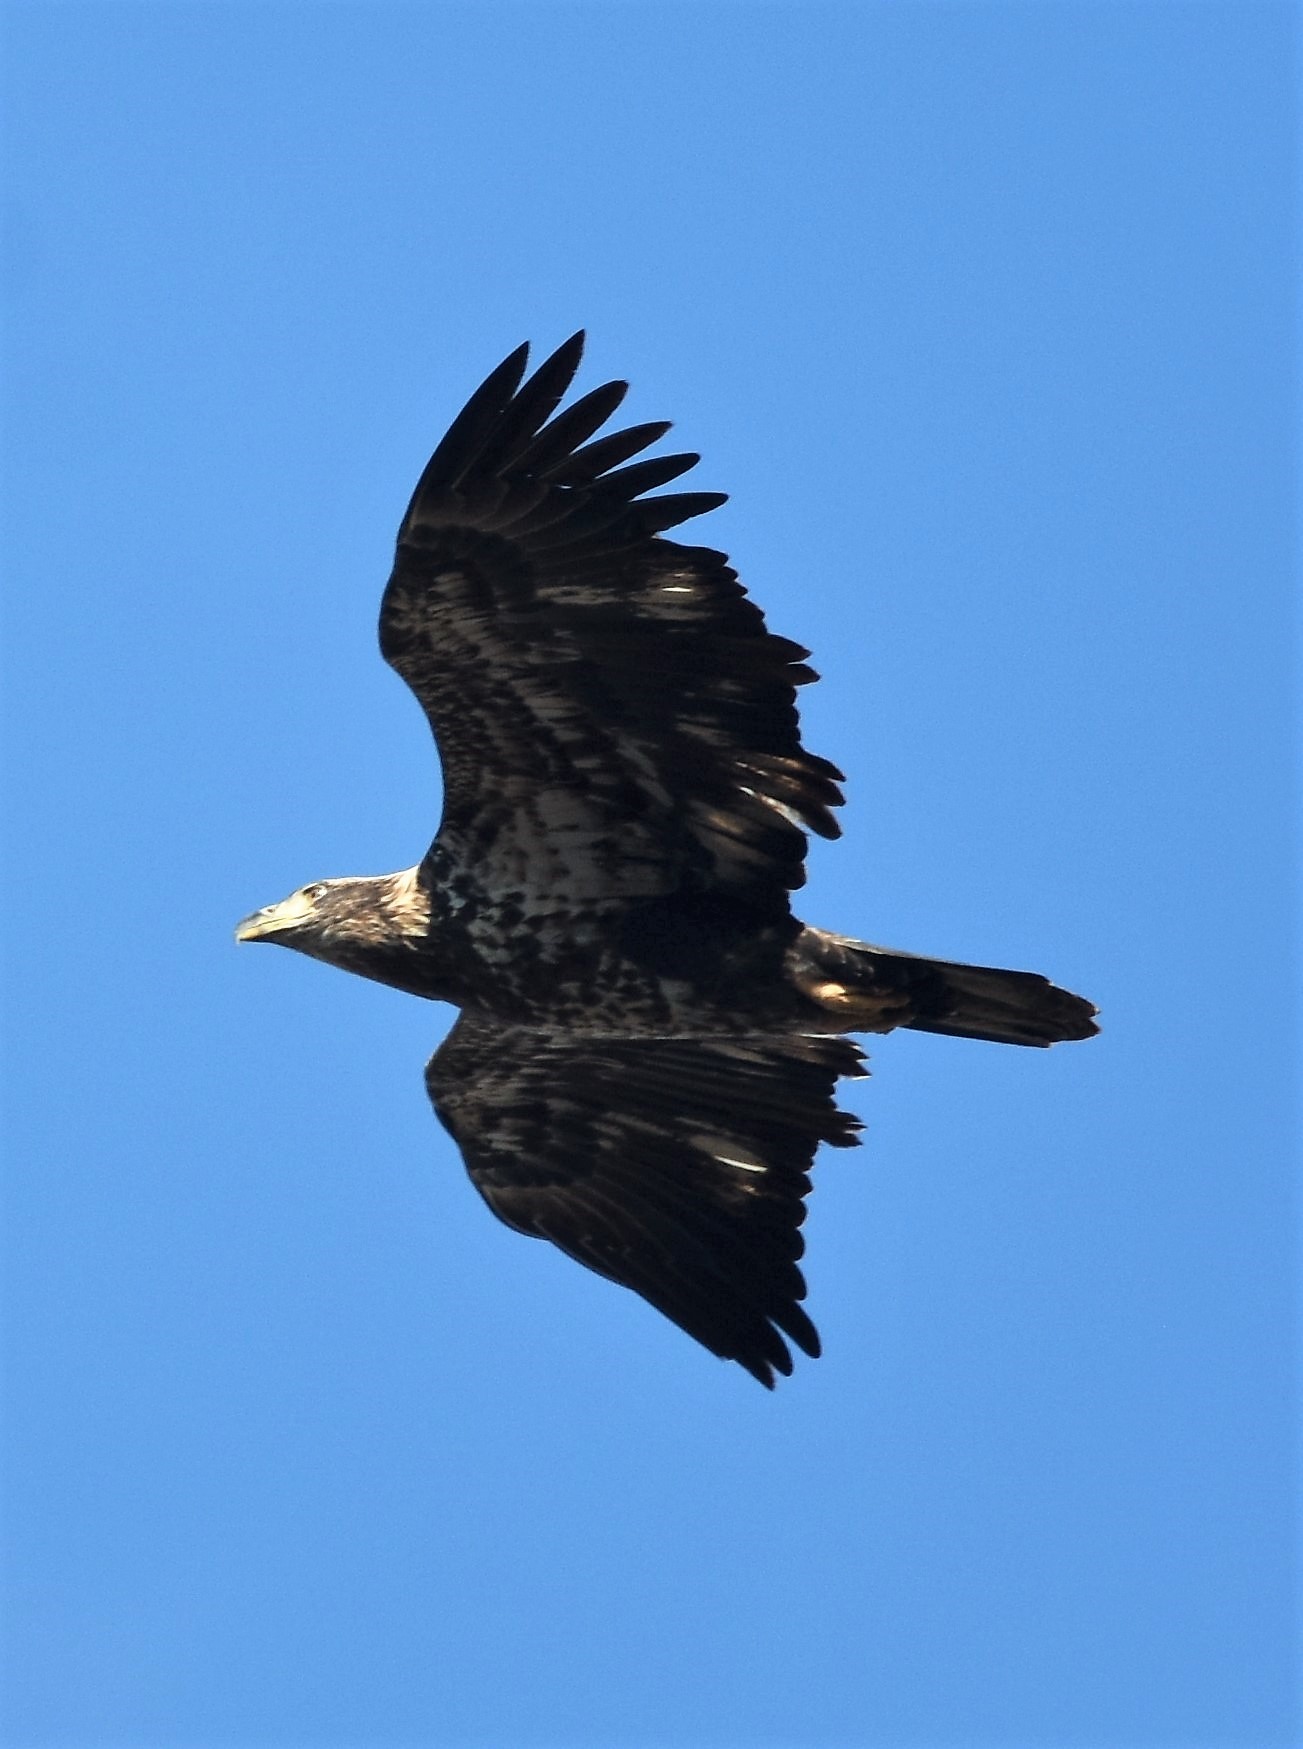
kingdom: Animalia
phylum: Chordata
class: Aves
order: Accipitriformes
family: Accipitridae
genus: Haliaeetus
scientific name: Haliaeetus leucocephalus
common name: Bald eagle
